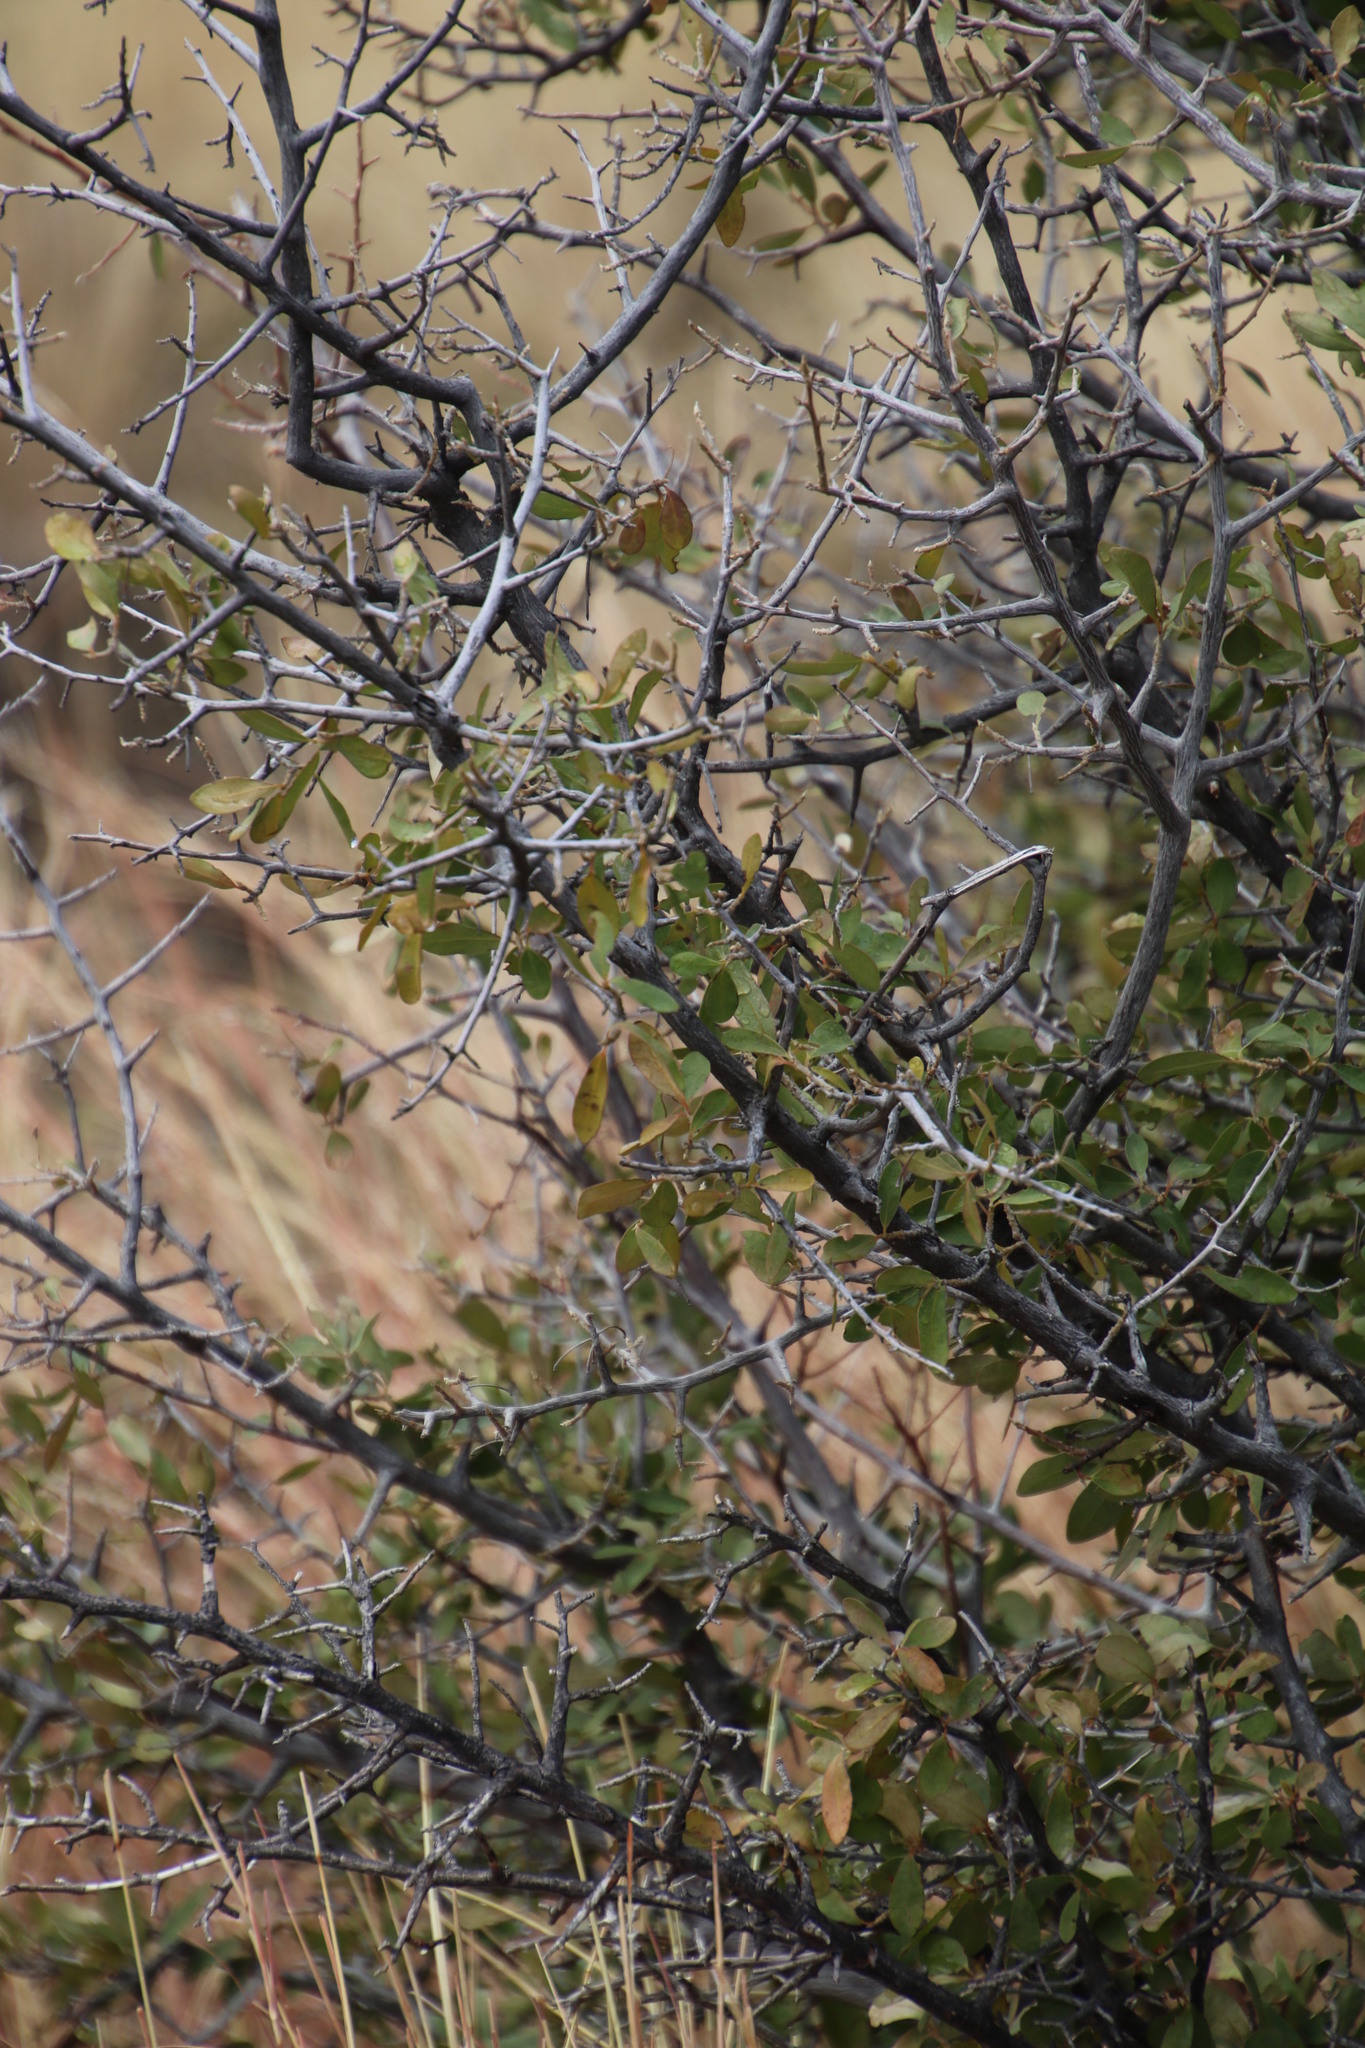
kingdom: Plantae
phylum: Tracheophyta
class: Magnoliopsida
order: Ericales
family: Ebenaceae
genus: Diospyros
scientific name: Diospyros lycioides
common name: Red star apple
